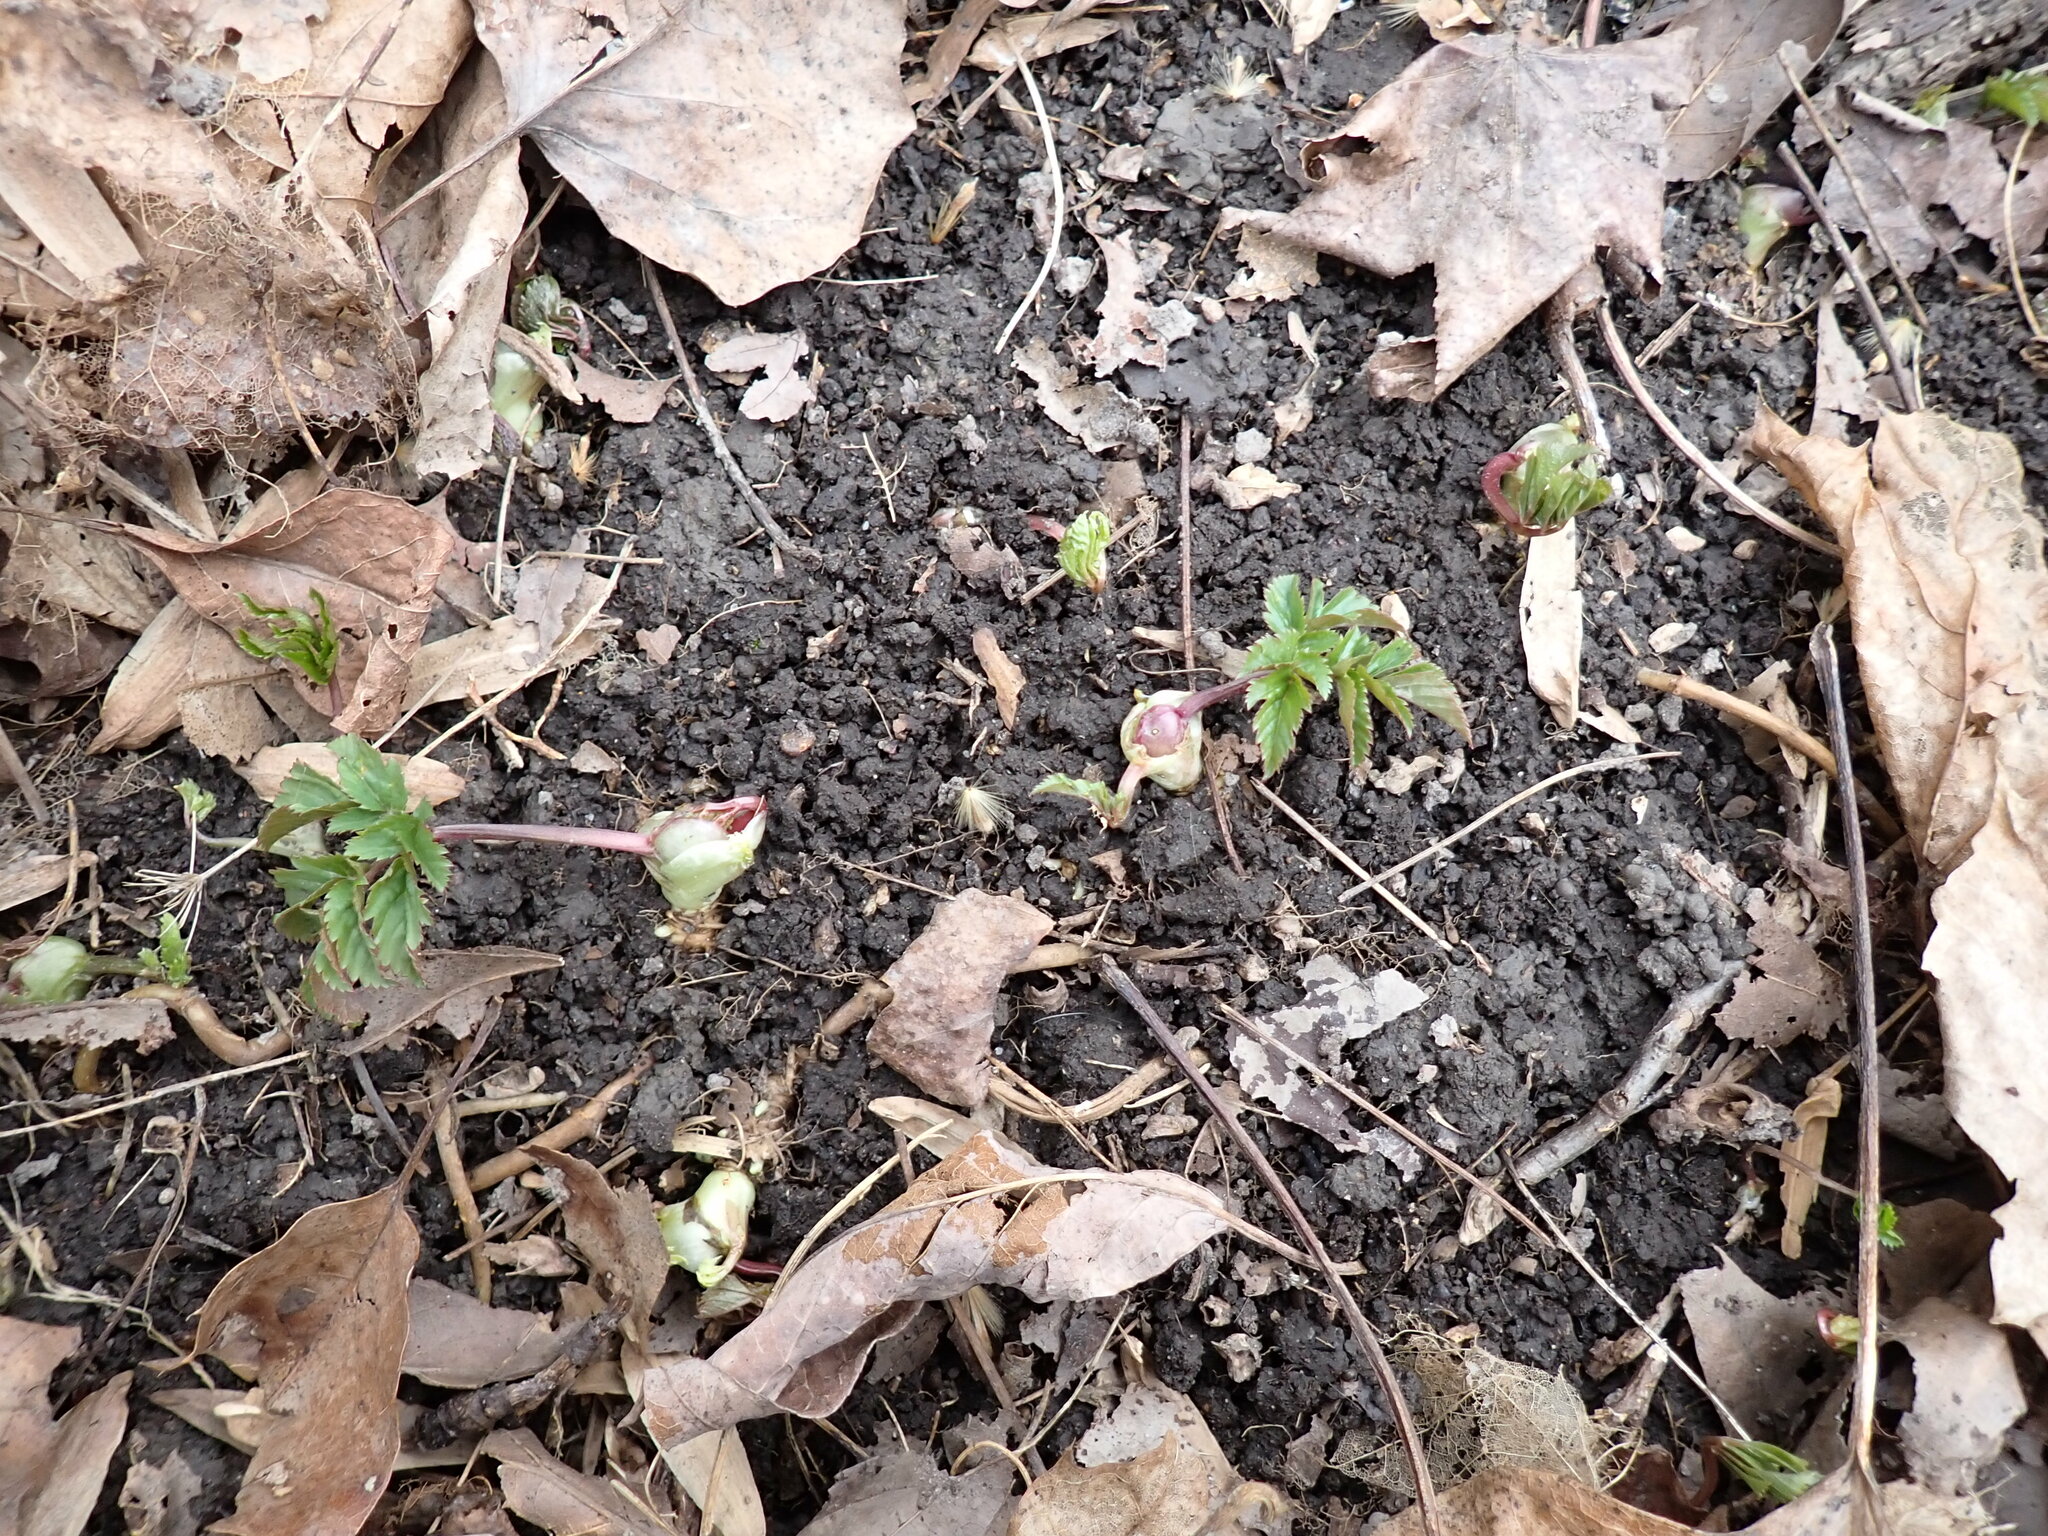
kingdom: Plantae
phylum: Tracheophyta
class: Magnoliopsida
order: Apiales
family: Apiaceae
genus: Aegopodium
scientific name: Aegopodium podagraria
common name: Ground-elder
